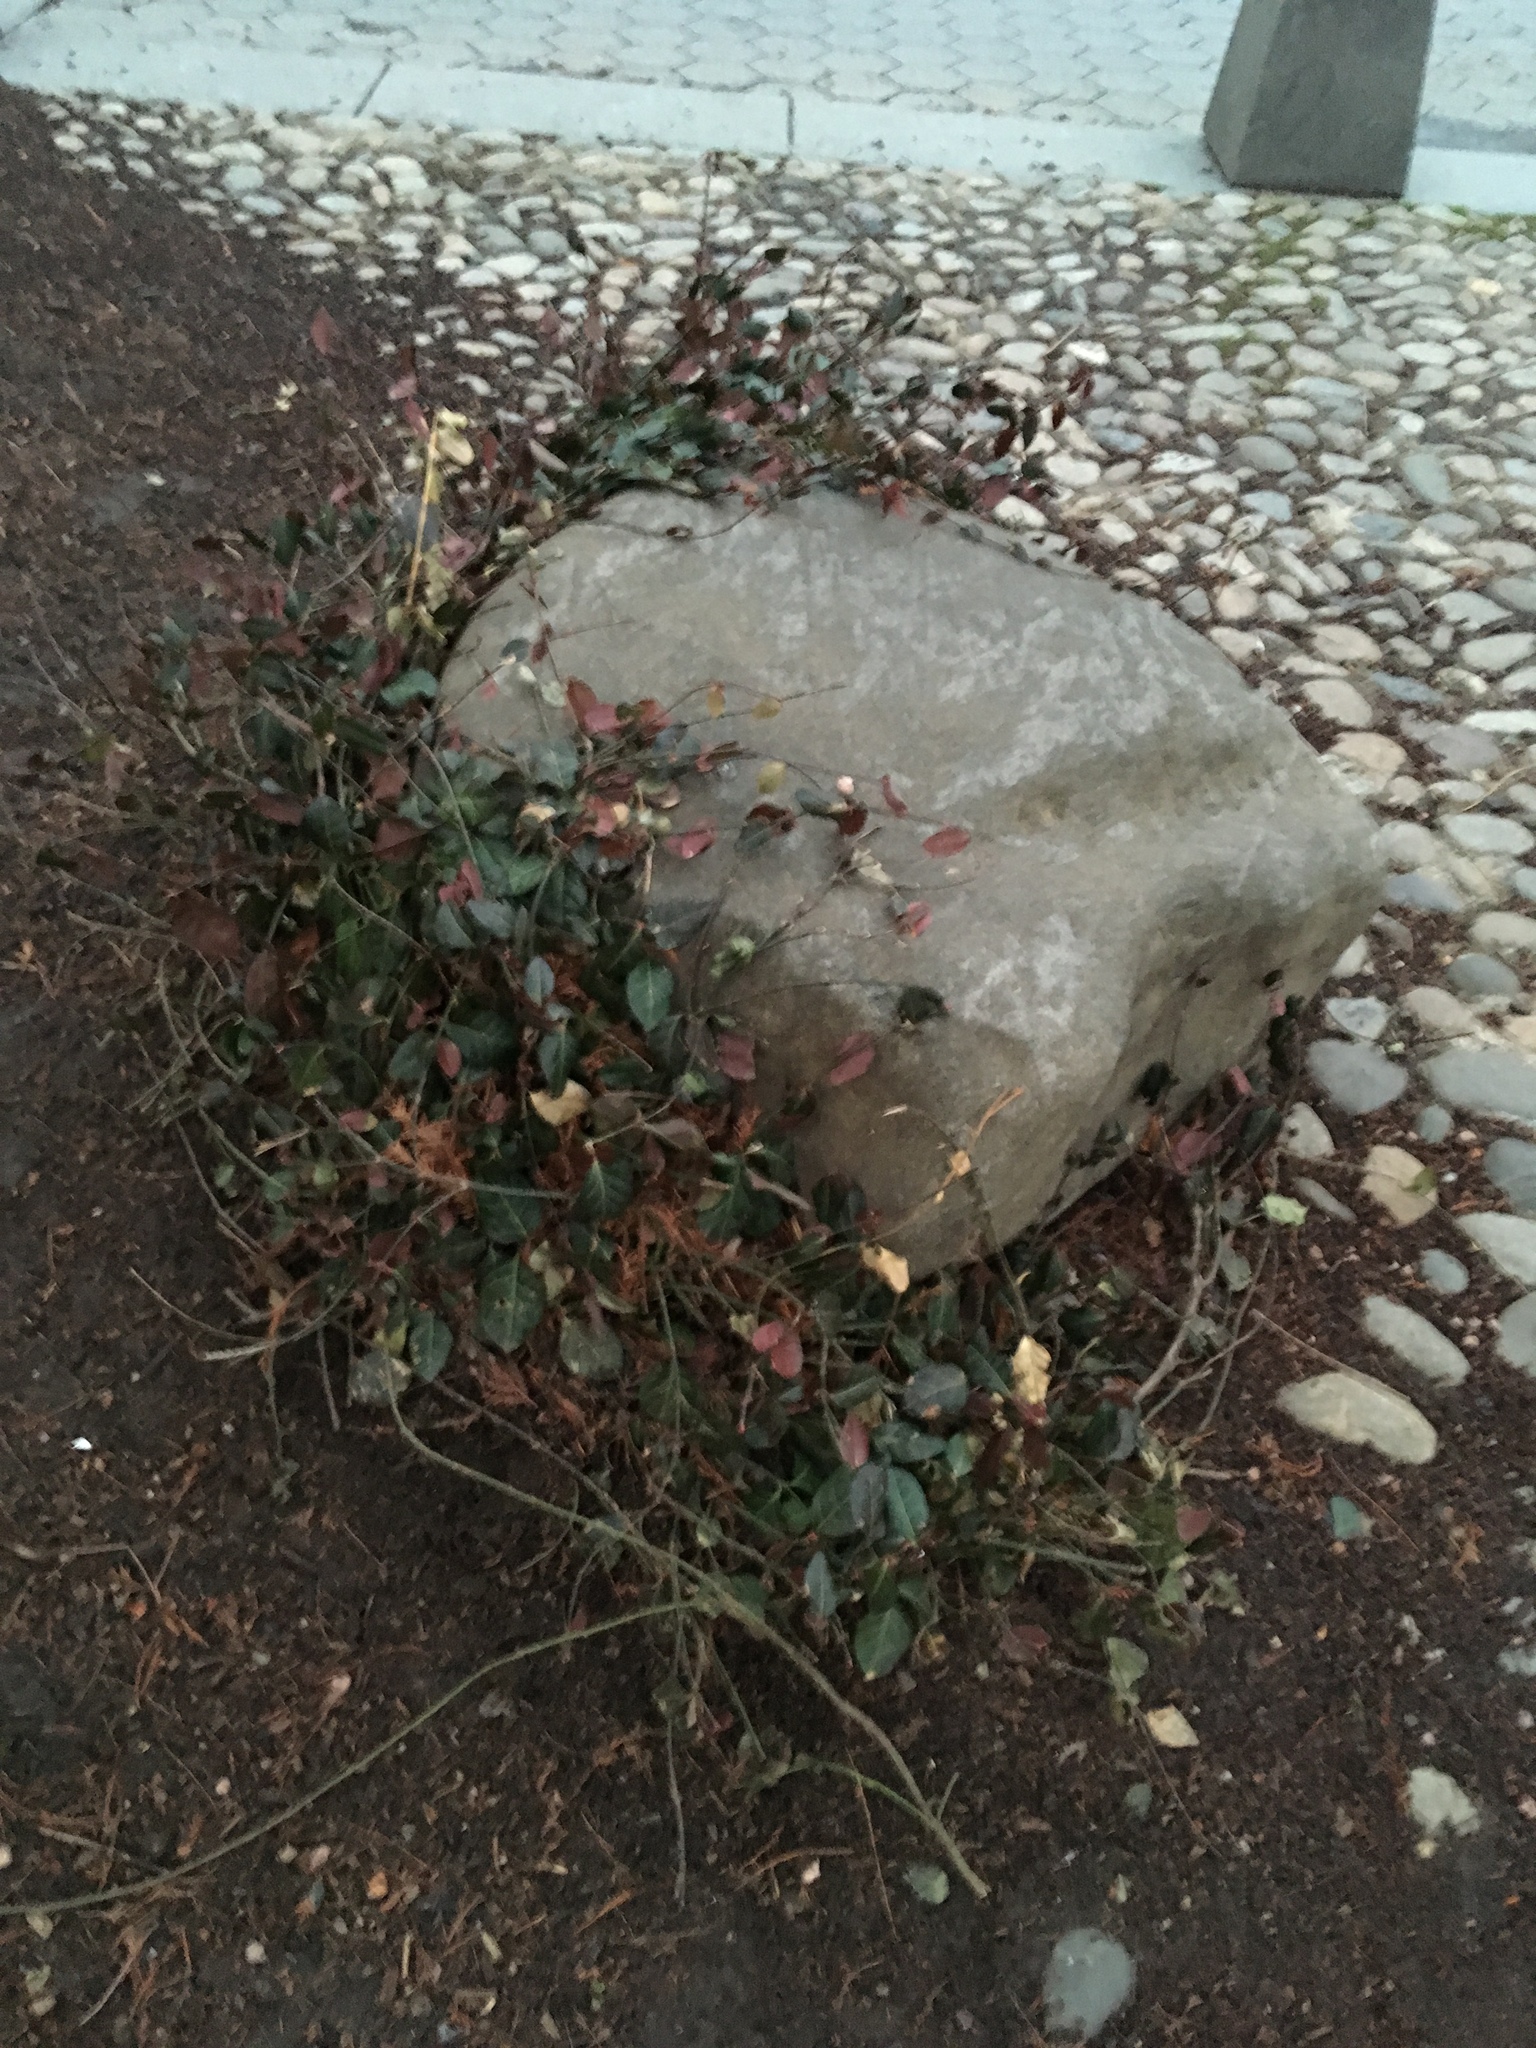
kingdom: Plantae
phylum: Tracheophyta
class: Magnoliopsida
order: Celastrales
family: Celastraceae
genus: Euonymus
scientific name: Euonymus fortunei
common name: Climbing euonymus
